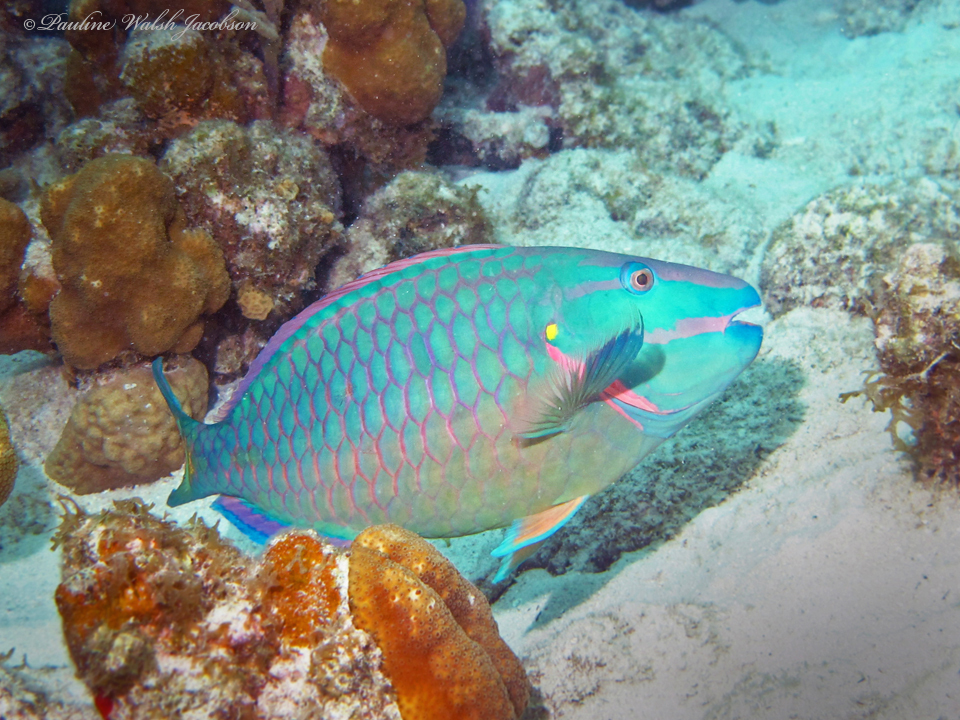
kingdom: Animalia
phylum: Chordata
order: Perciformes
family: Scaridae
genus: Sparisoma
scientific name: Sparisoma viride
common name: Stoplight parrotfish
